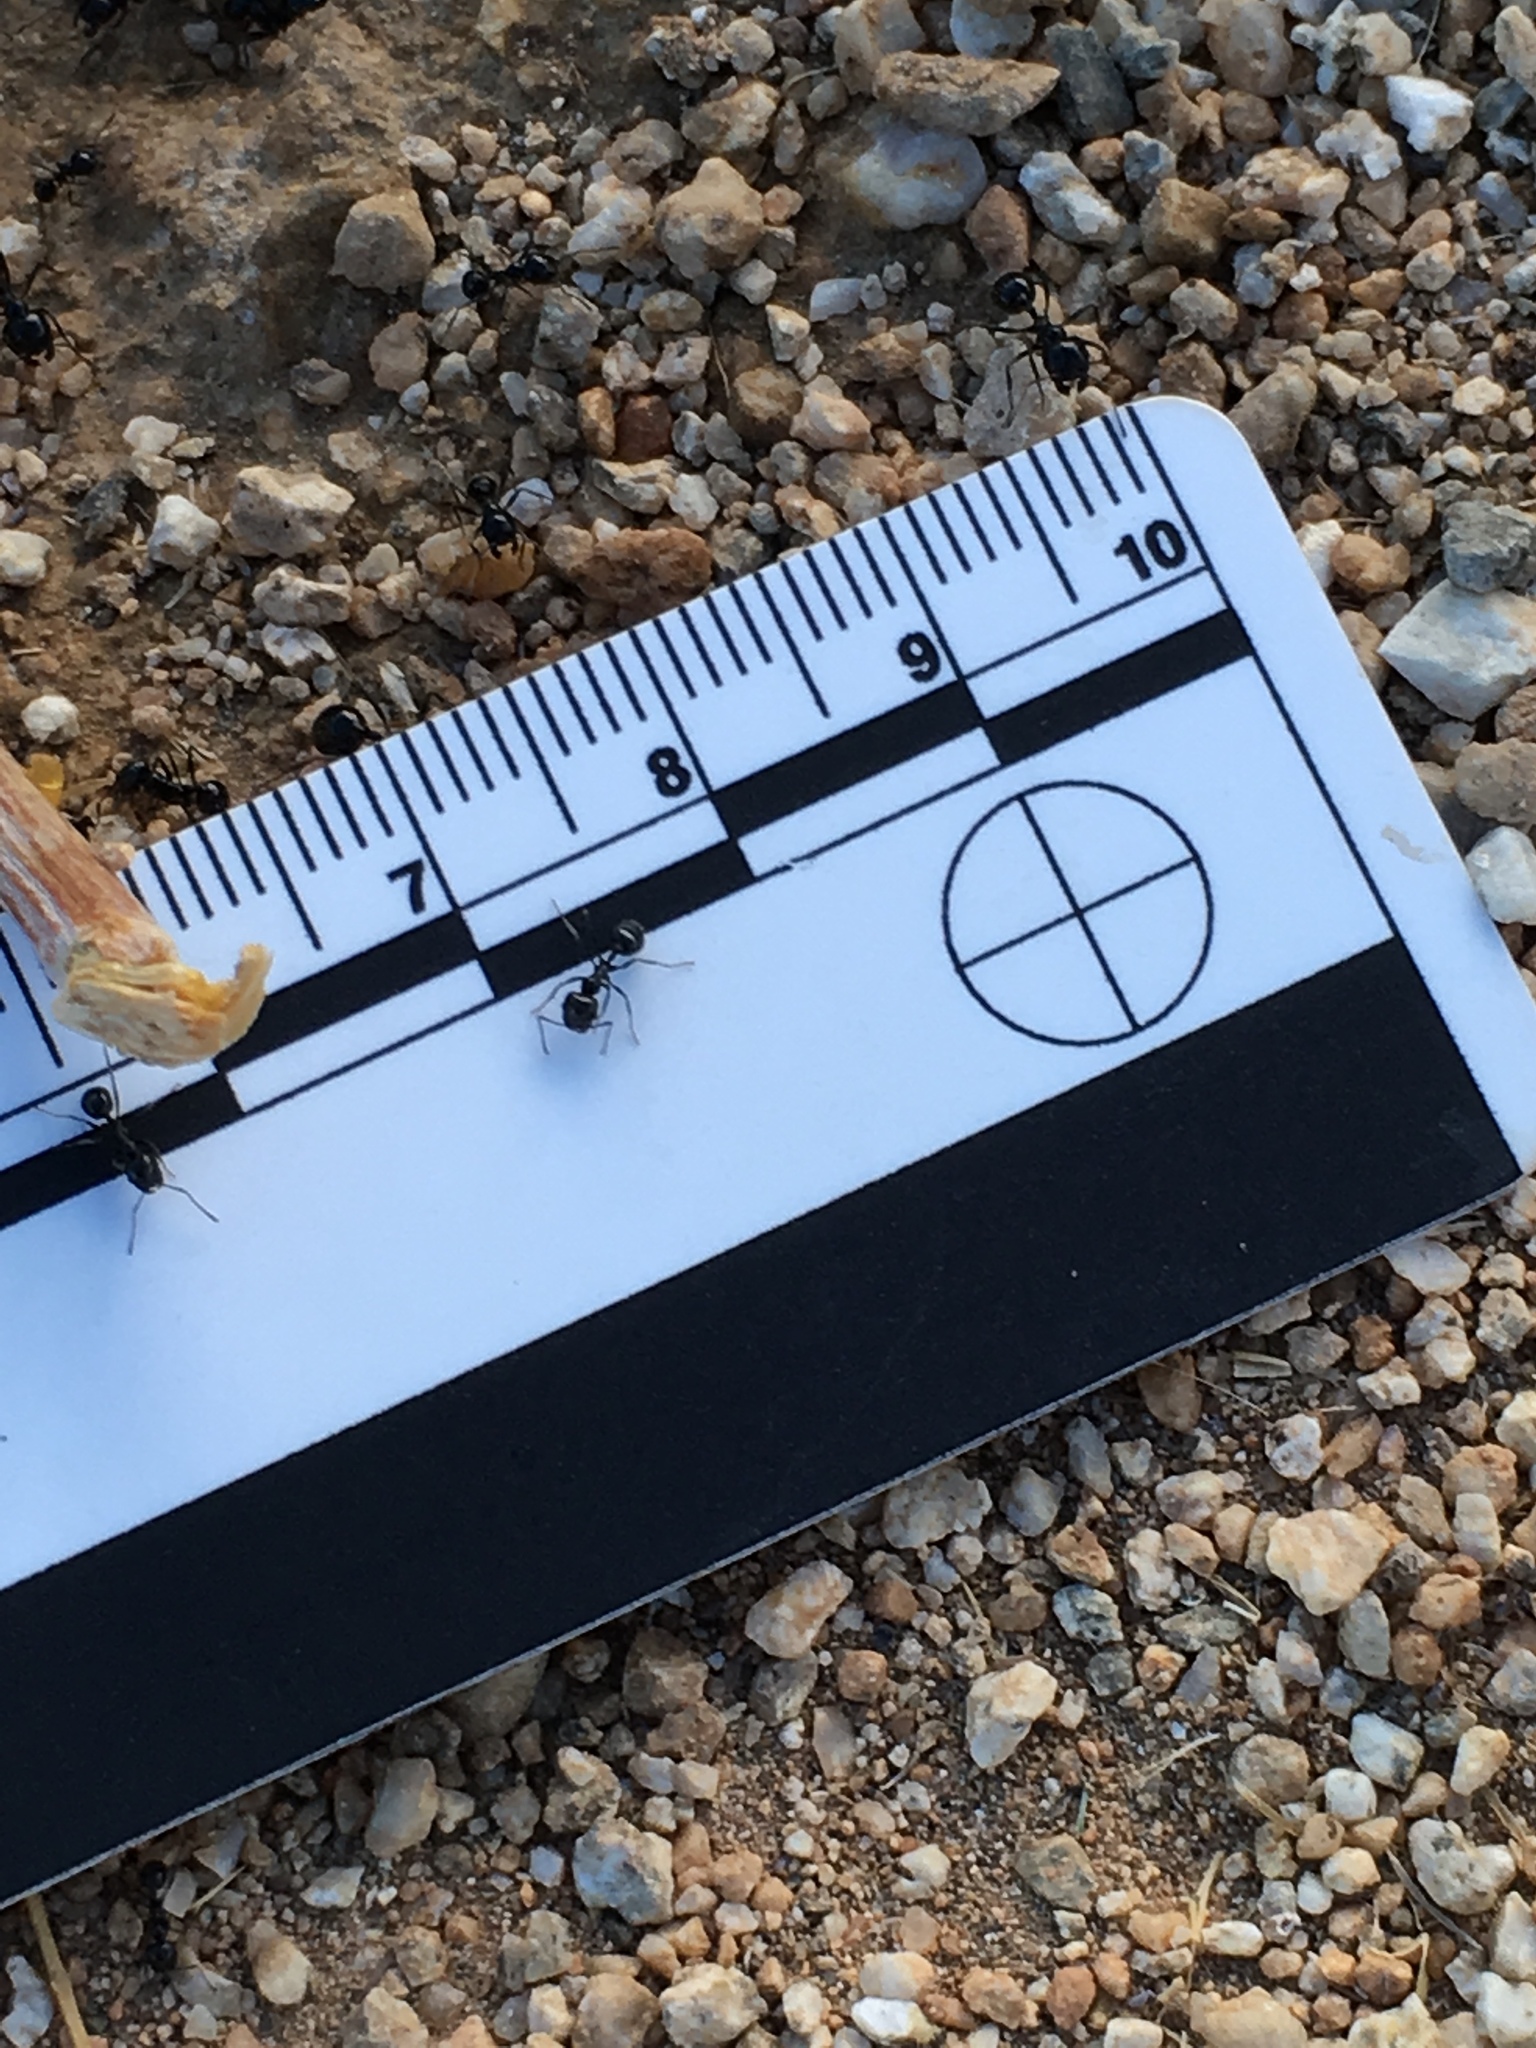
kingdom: Animalia
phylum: Arthropoda
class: Insecta
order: Hymenoptera
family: Formicidae
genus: Messor
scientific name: Messor pergandei
